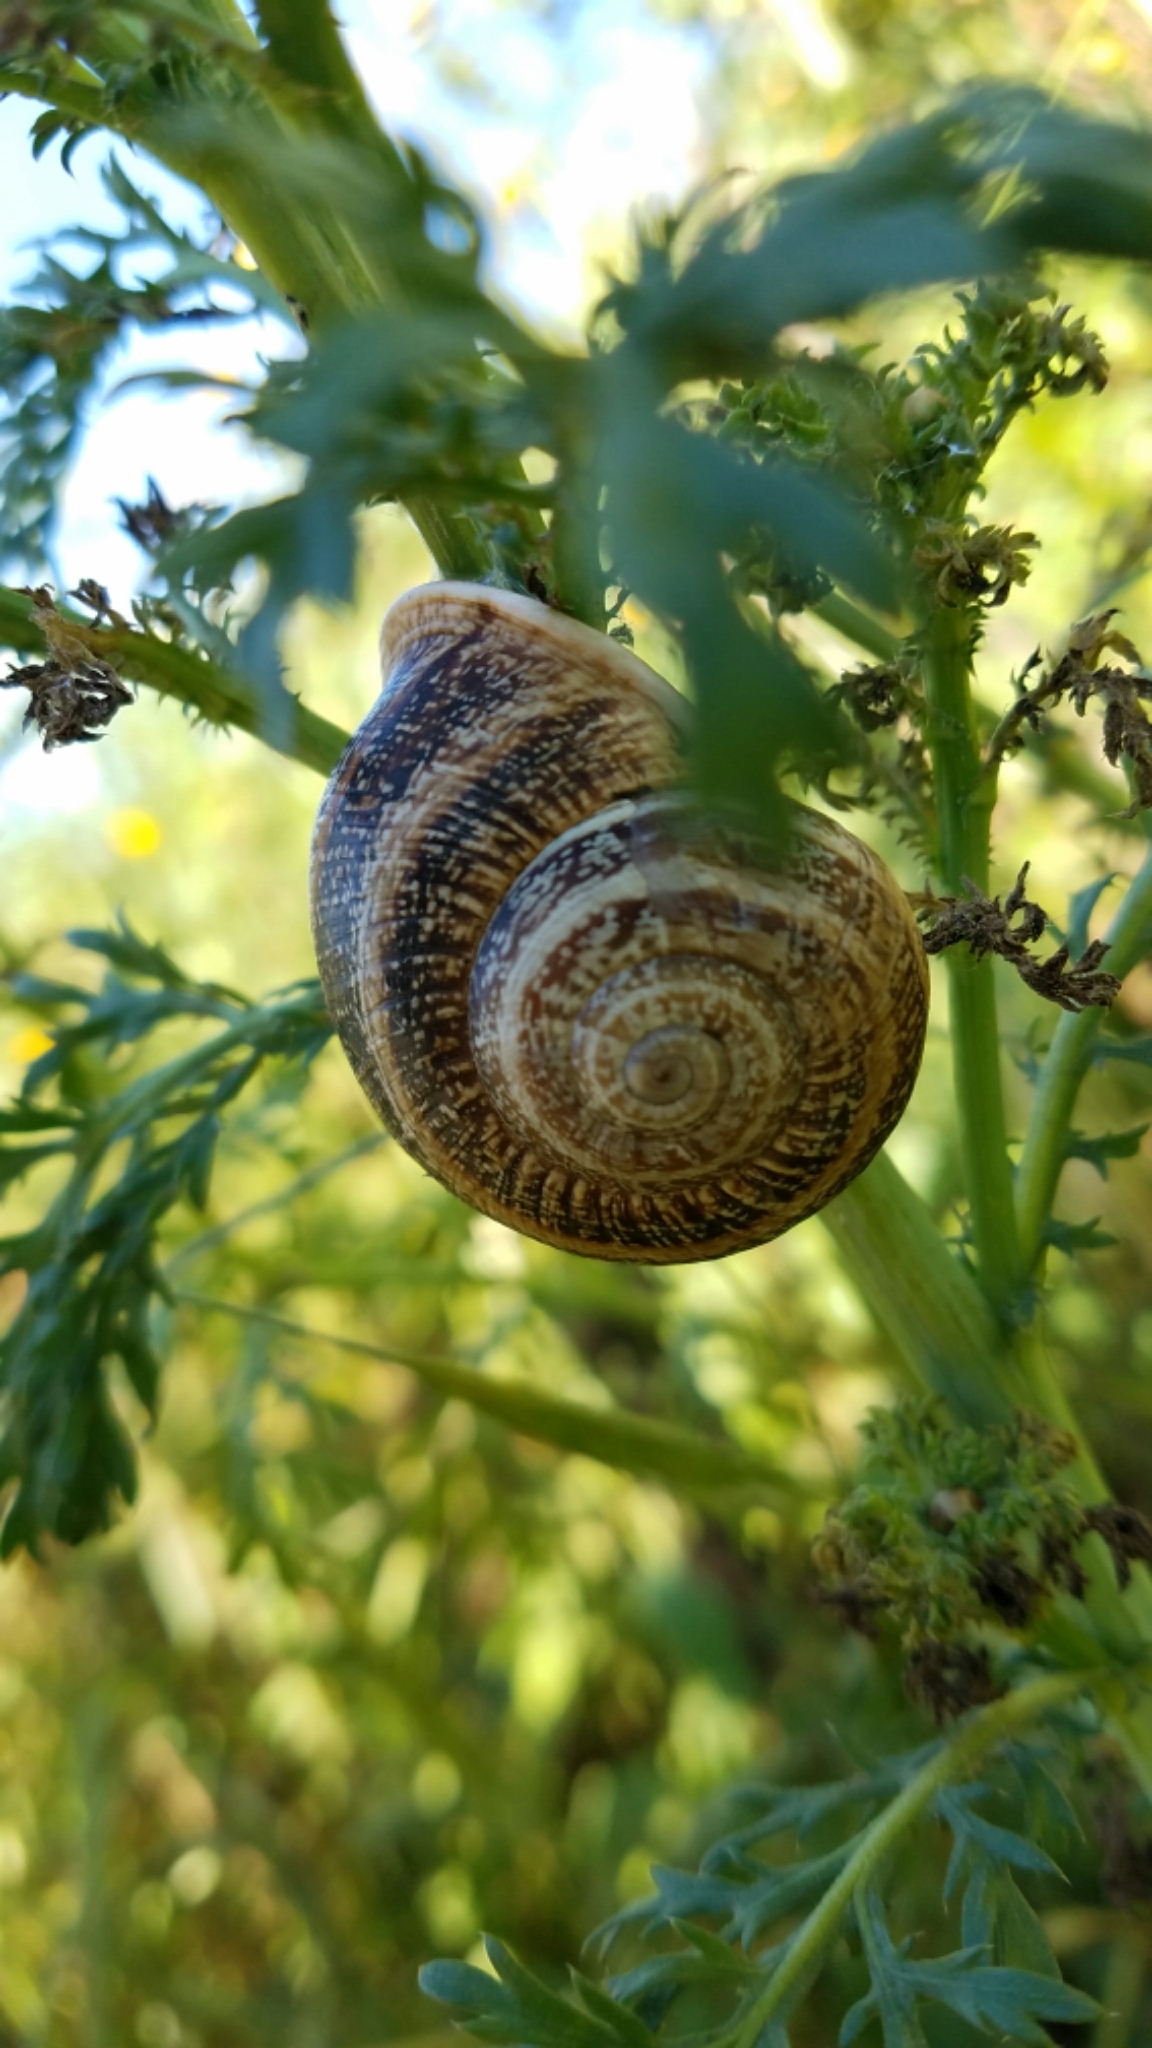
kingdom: Animalia
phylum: Mollusca
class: Gastropoda
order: Stylommatophora
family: Helicidae
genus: Otala
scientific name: Otala lactea
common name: Milk snail
